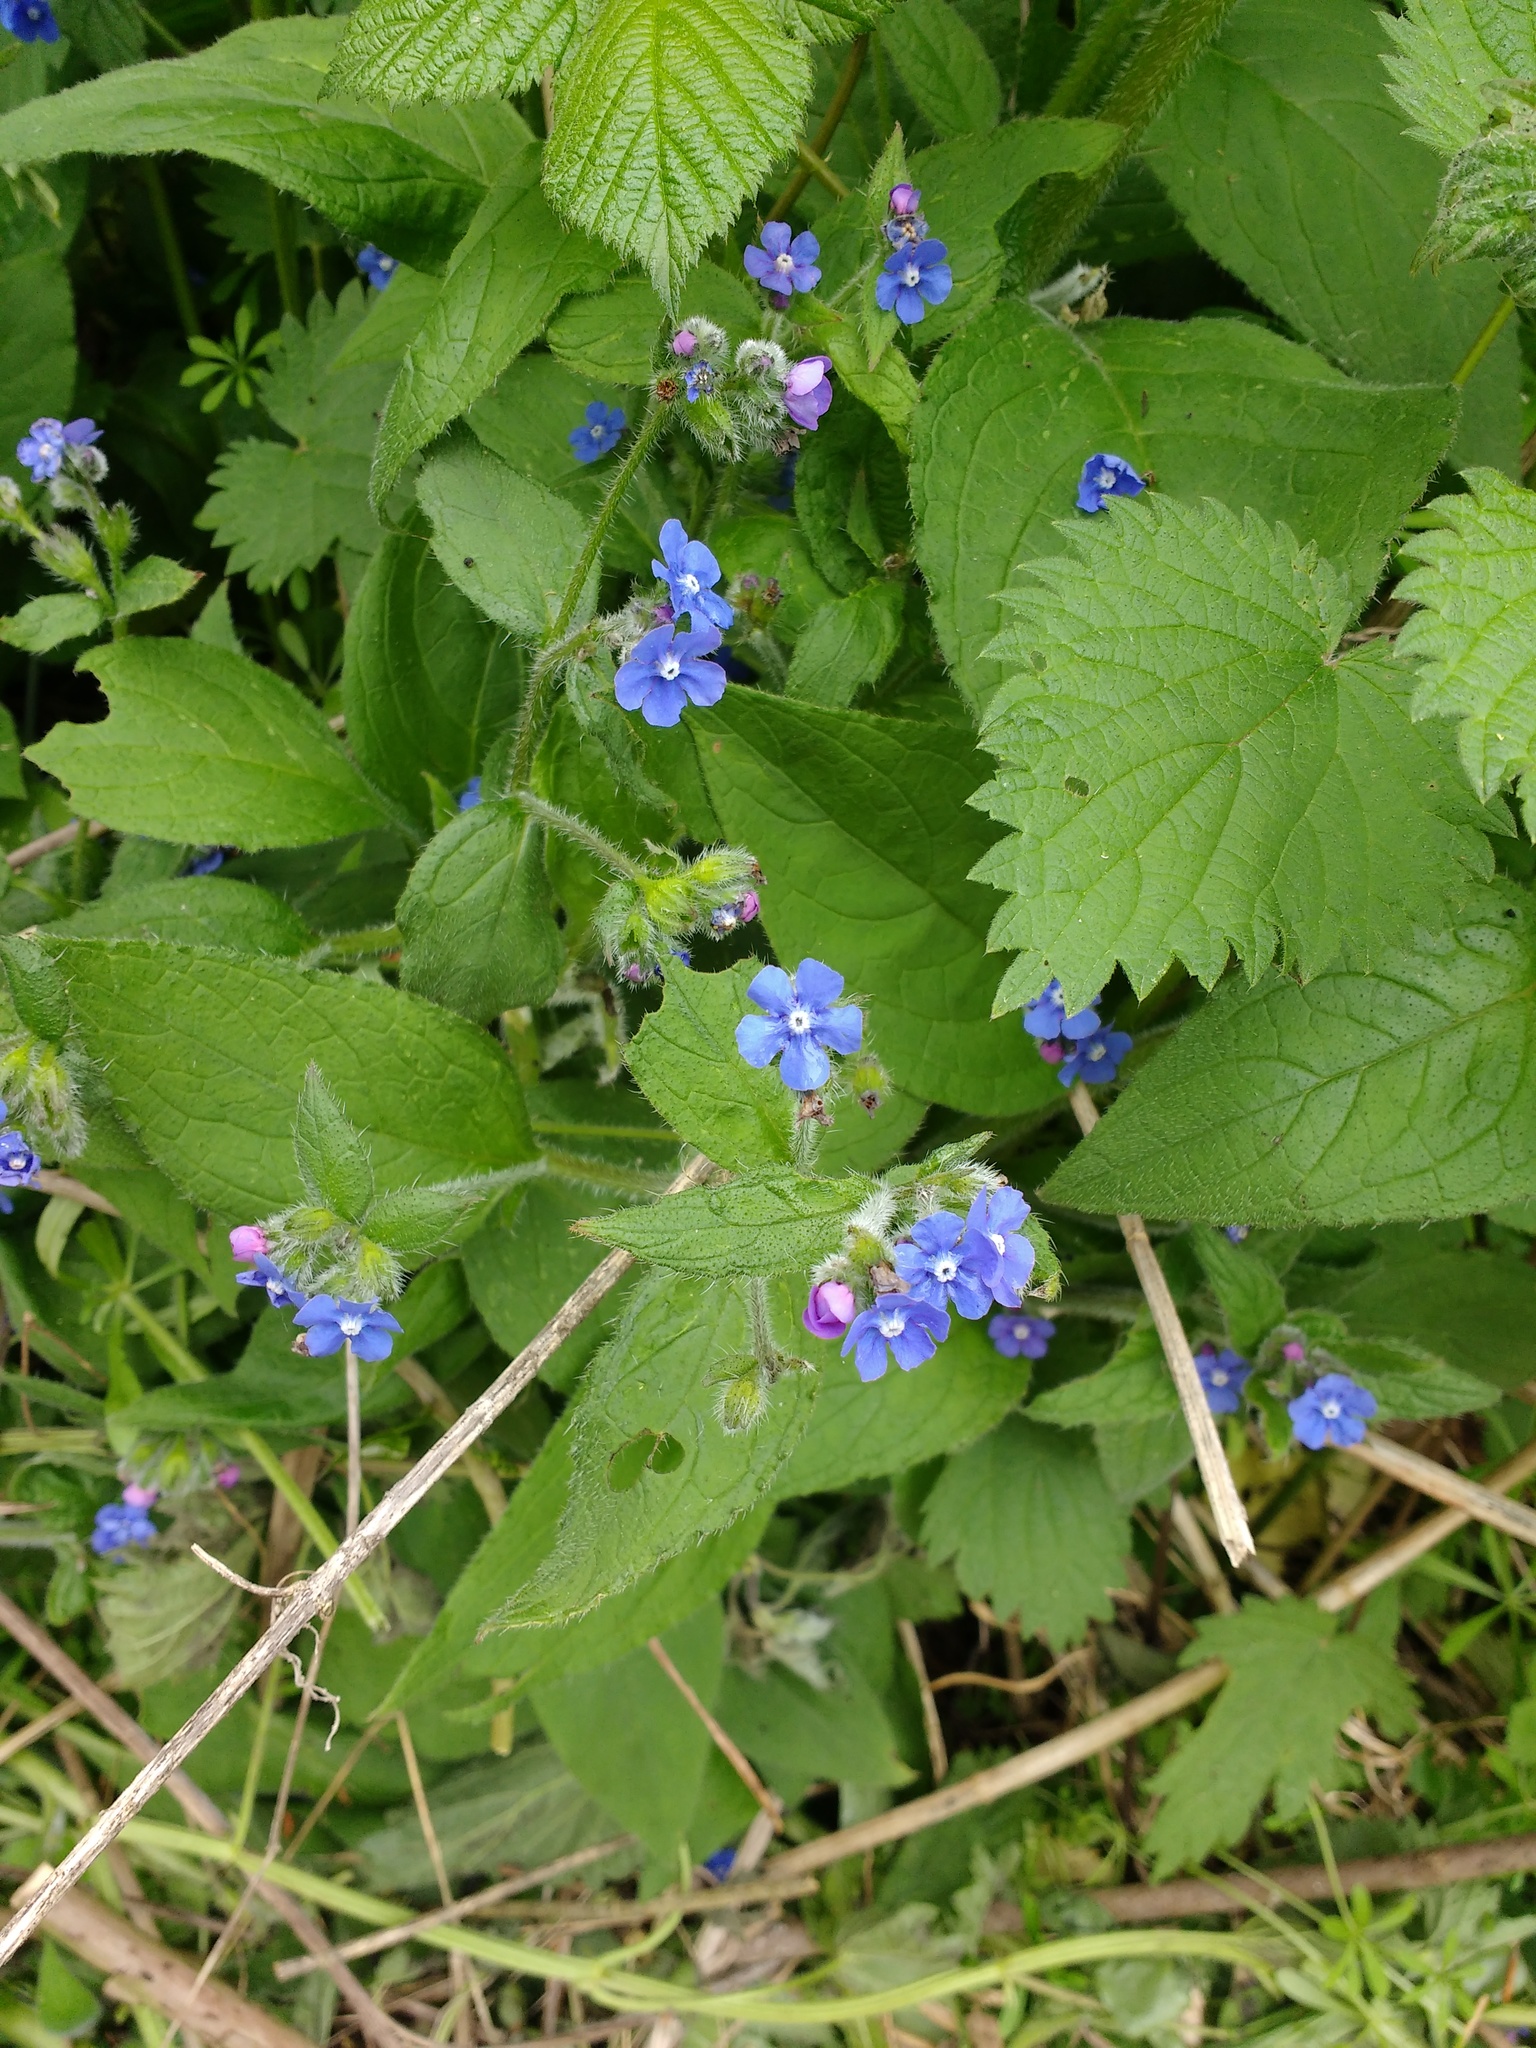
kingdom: Plantae
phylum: Tracheophyta
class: Magnoliopsida
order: Boraginales
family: Boraginaceae
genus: Pentaglottis
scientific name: Pentaglottis sempervirens
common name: Green alkanet
